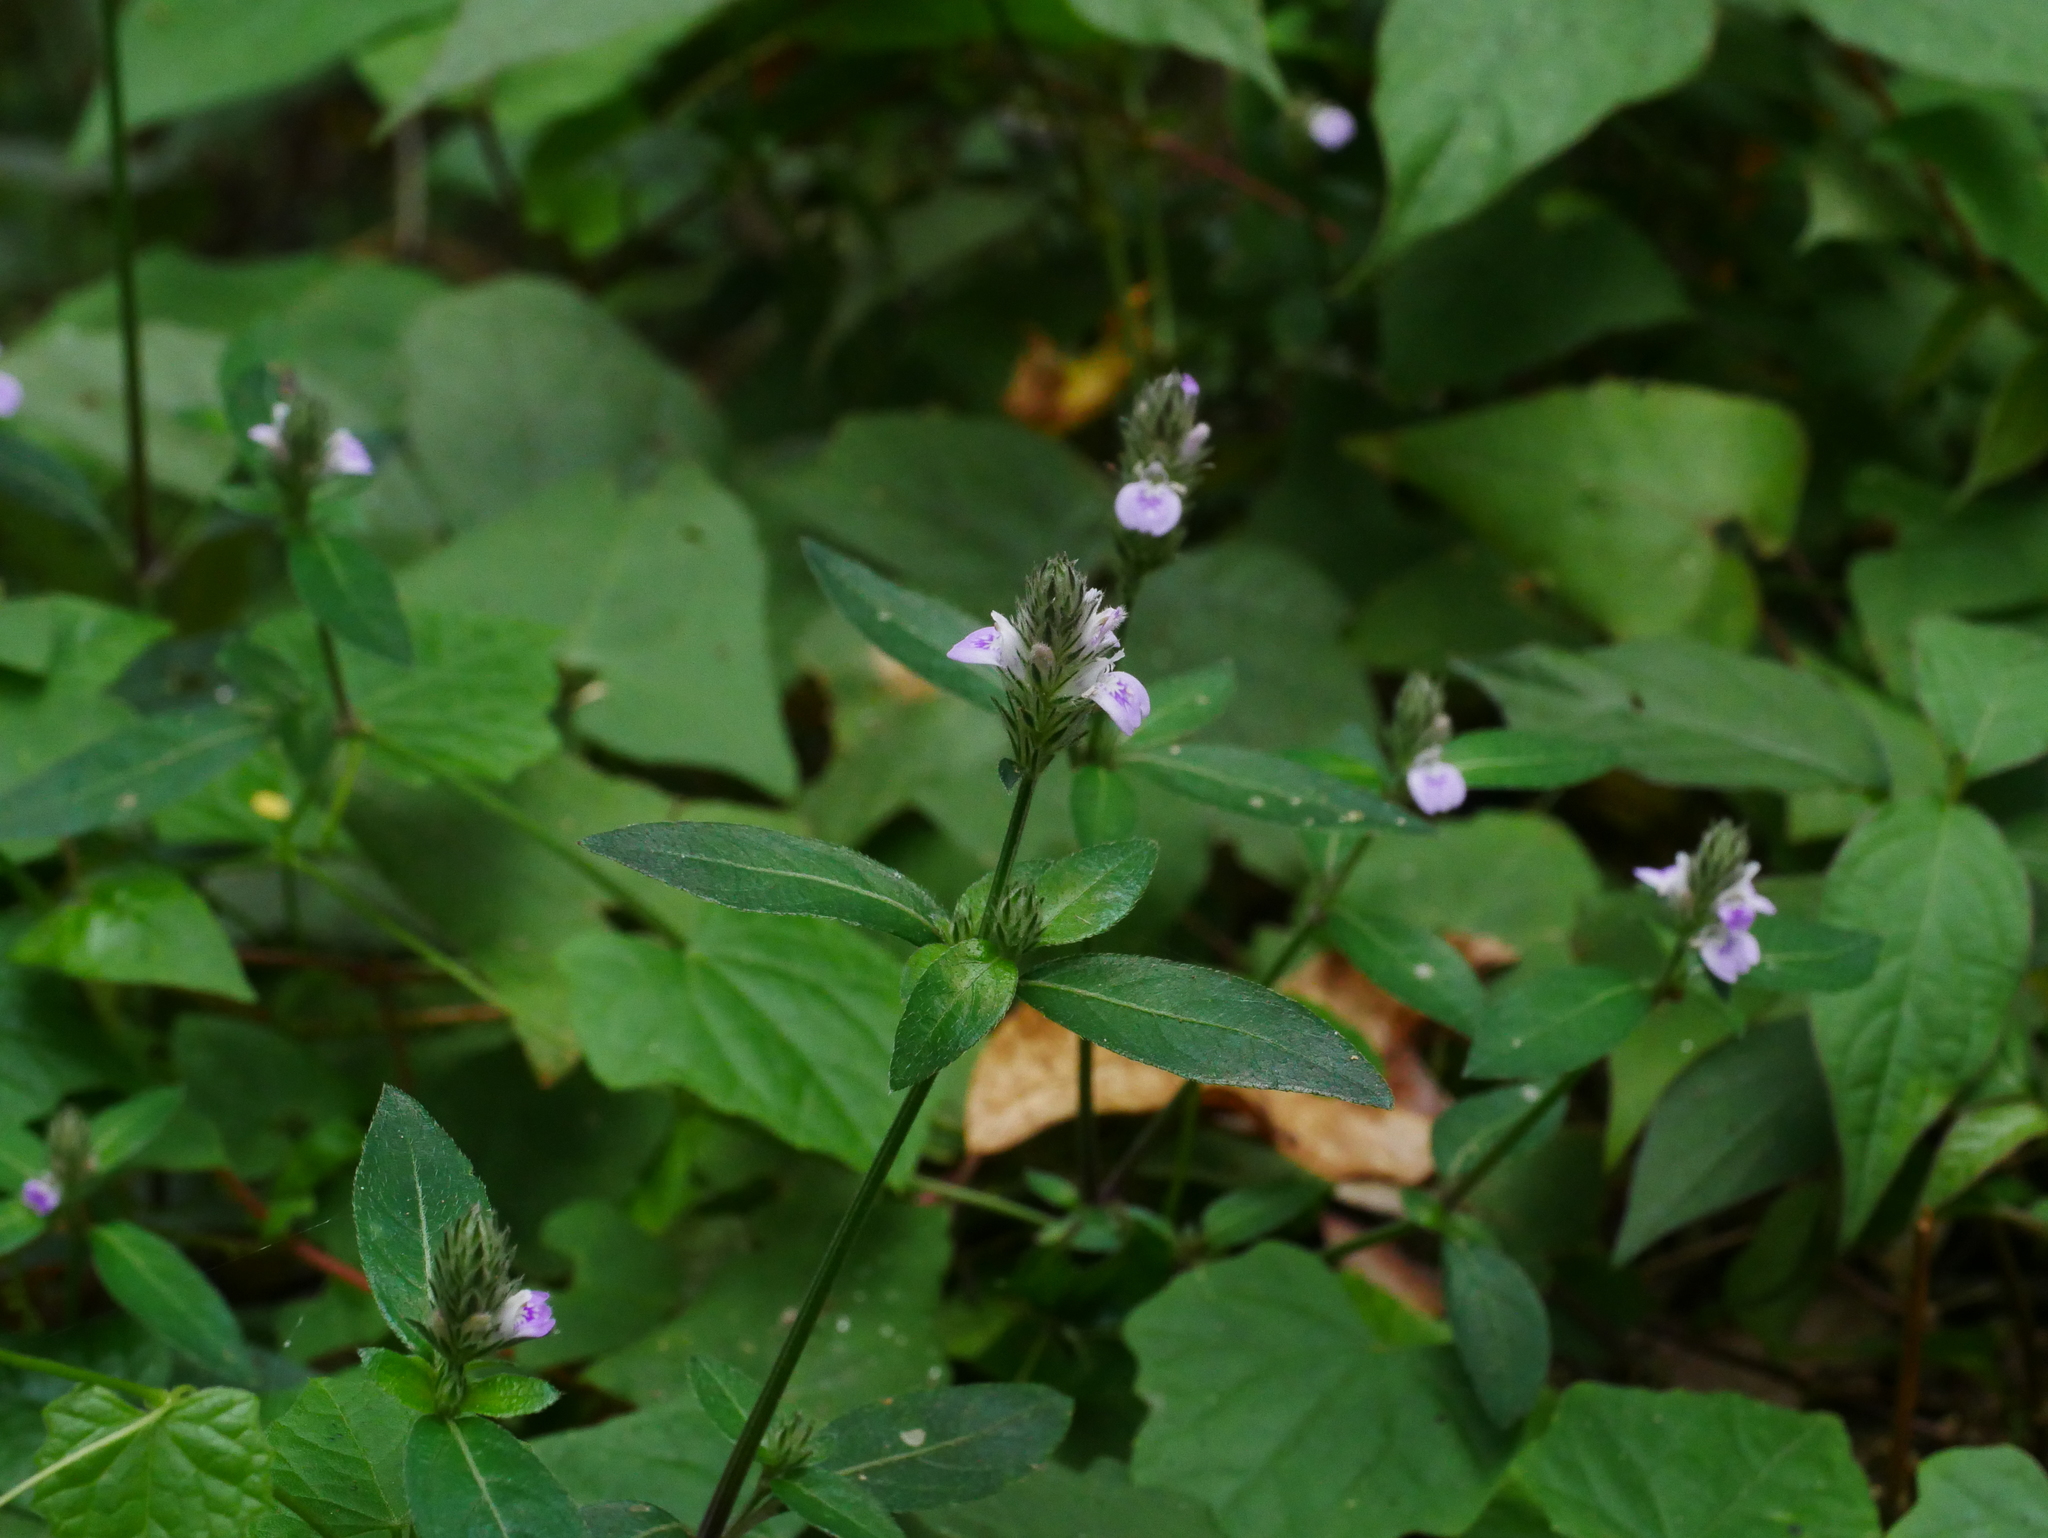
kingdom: Plantae
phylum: Tracheophyta
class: Magnoliopsida
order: Lamiales
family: Acanthaceae
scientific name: Acanthaceae
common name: Acanthaceae
